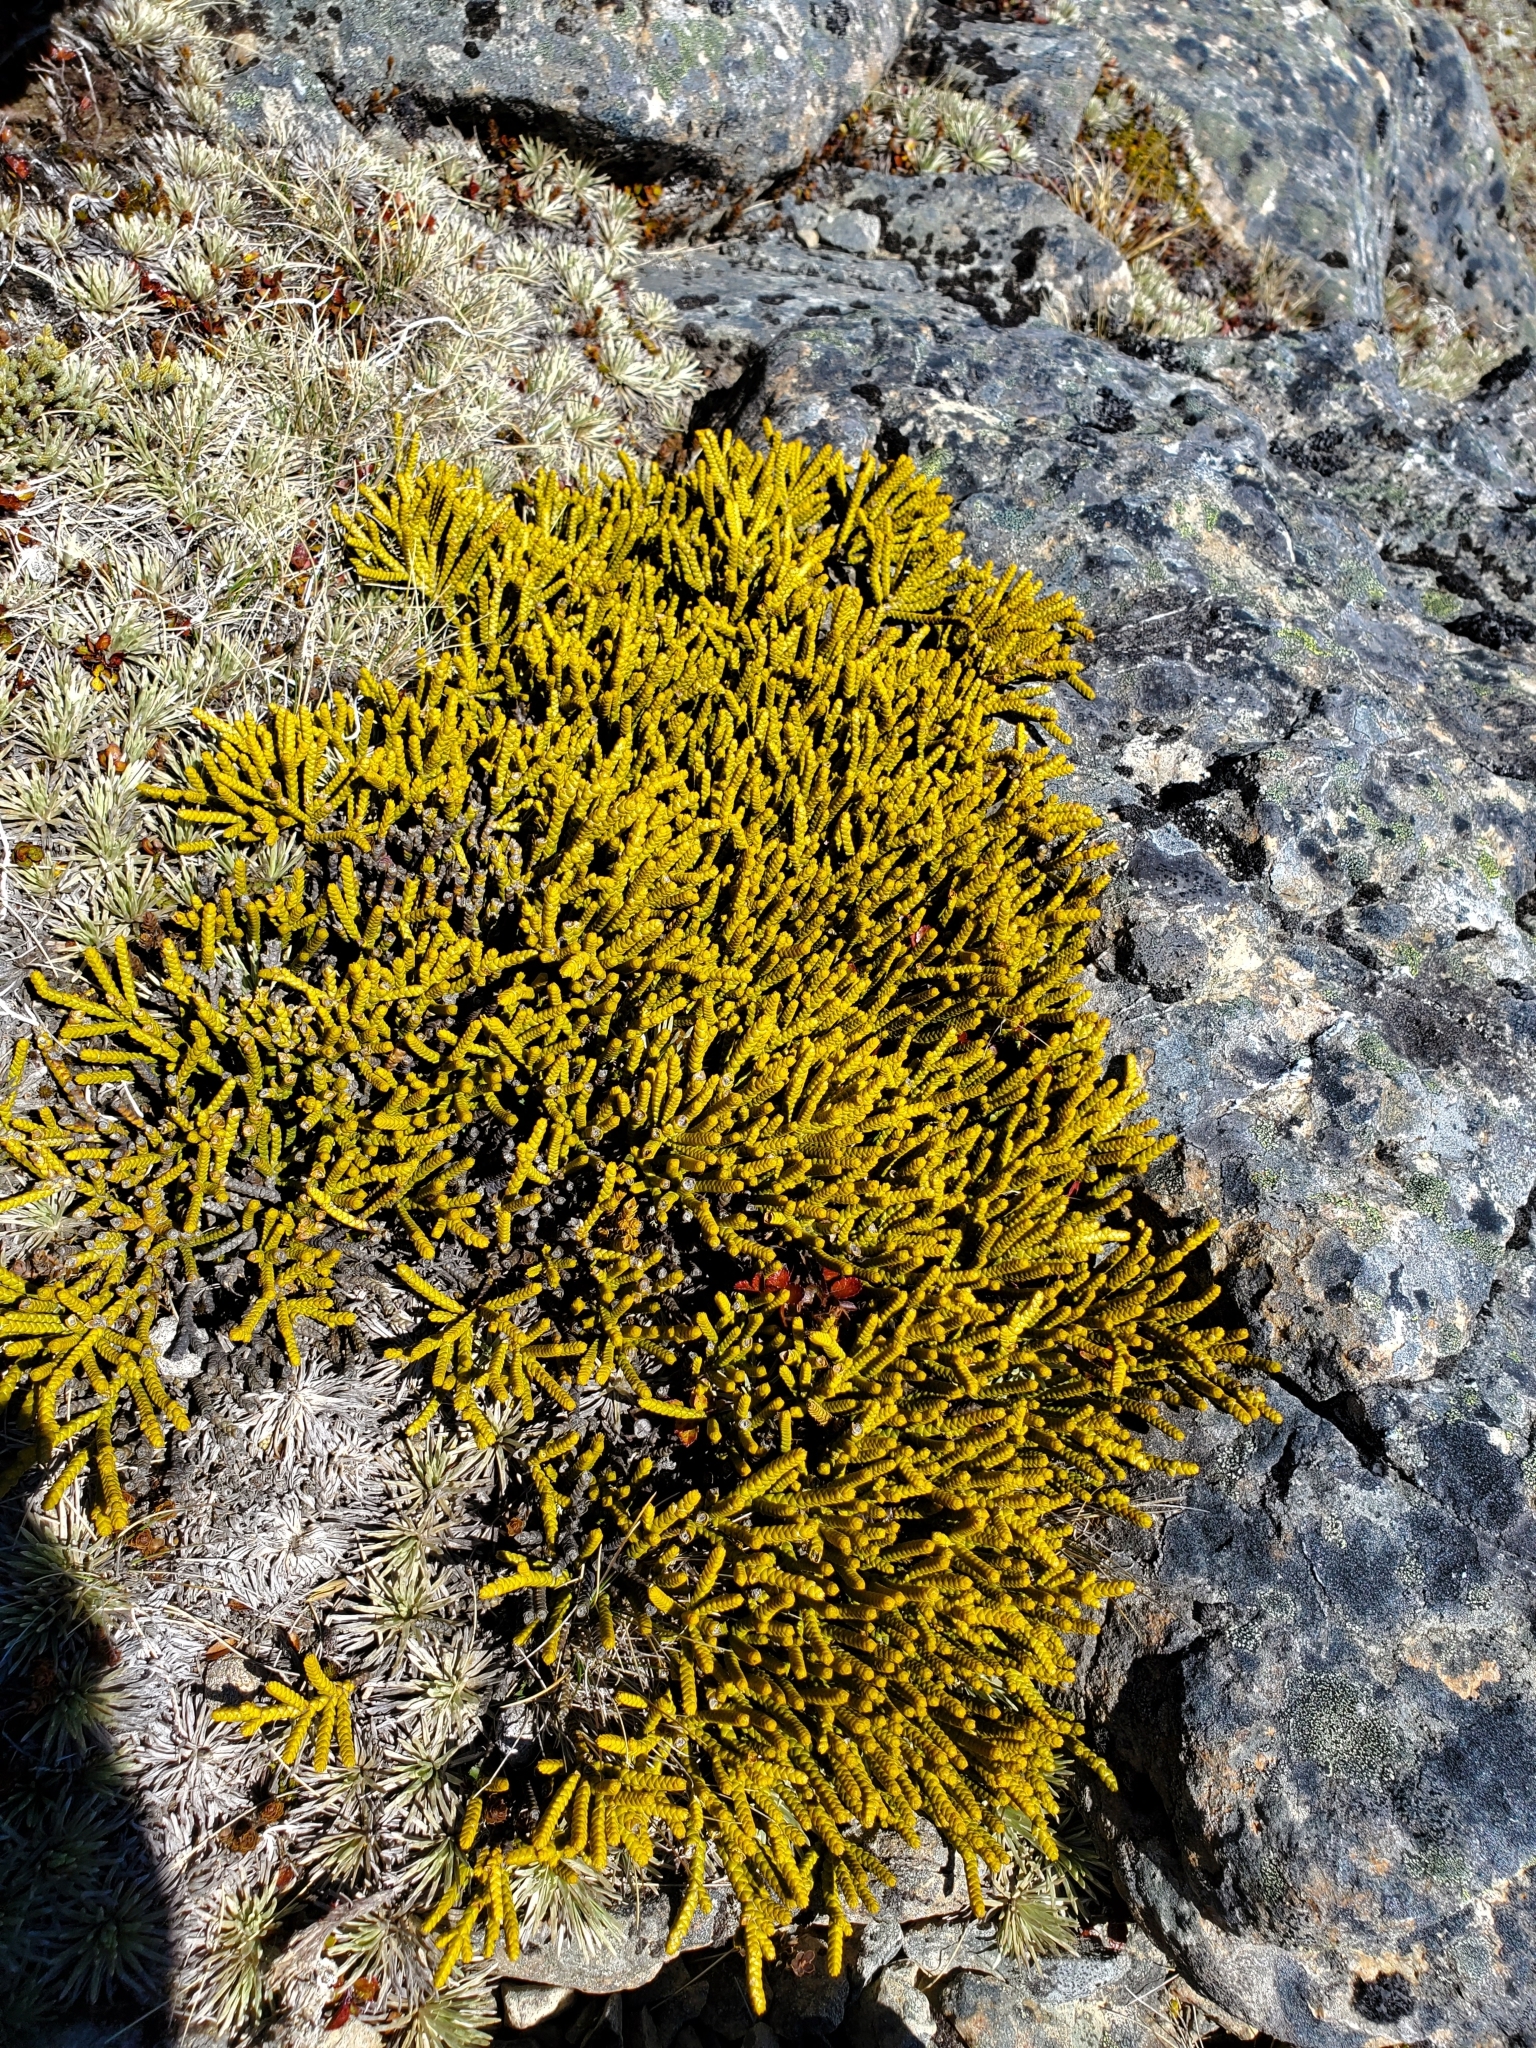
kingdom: Plantae
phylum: Tracheophyta
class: Magnoliopsida
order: Lamiales
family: Plantaginaceae
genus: Veronica
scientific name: Veronica lycopodioides
